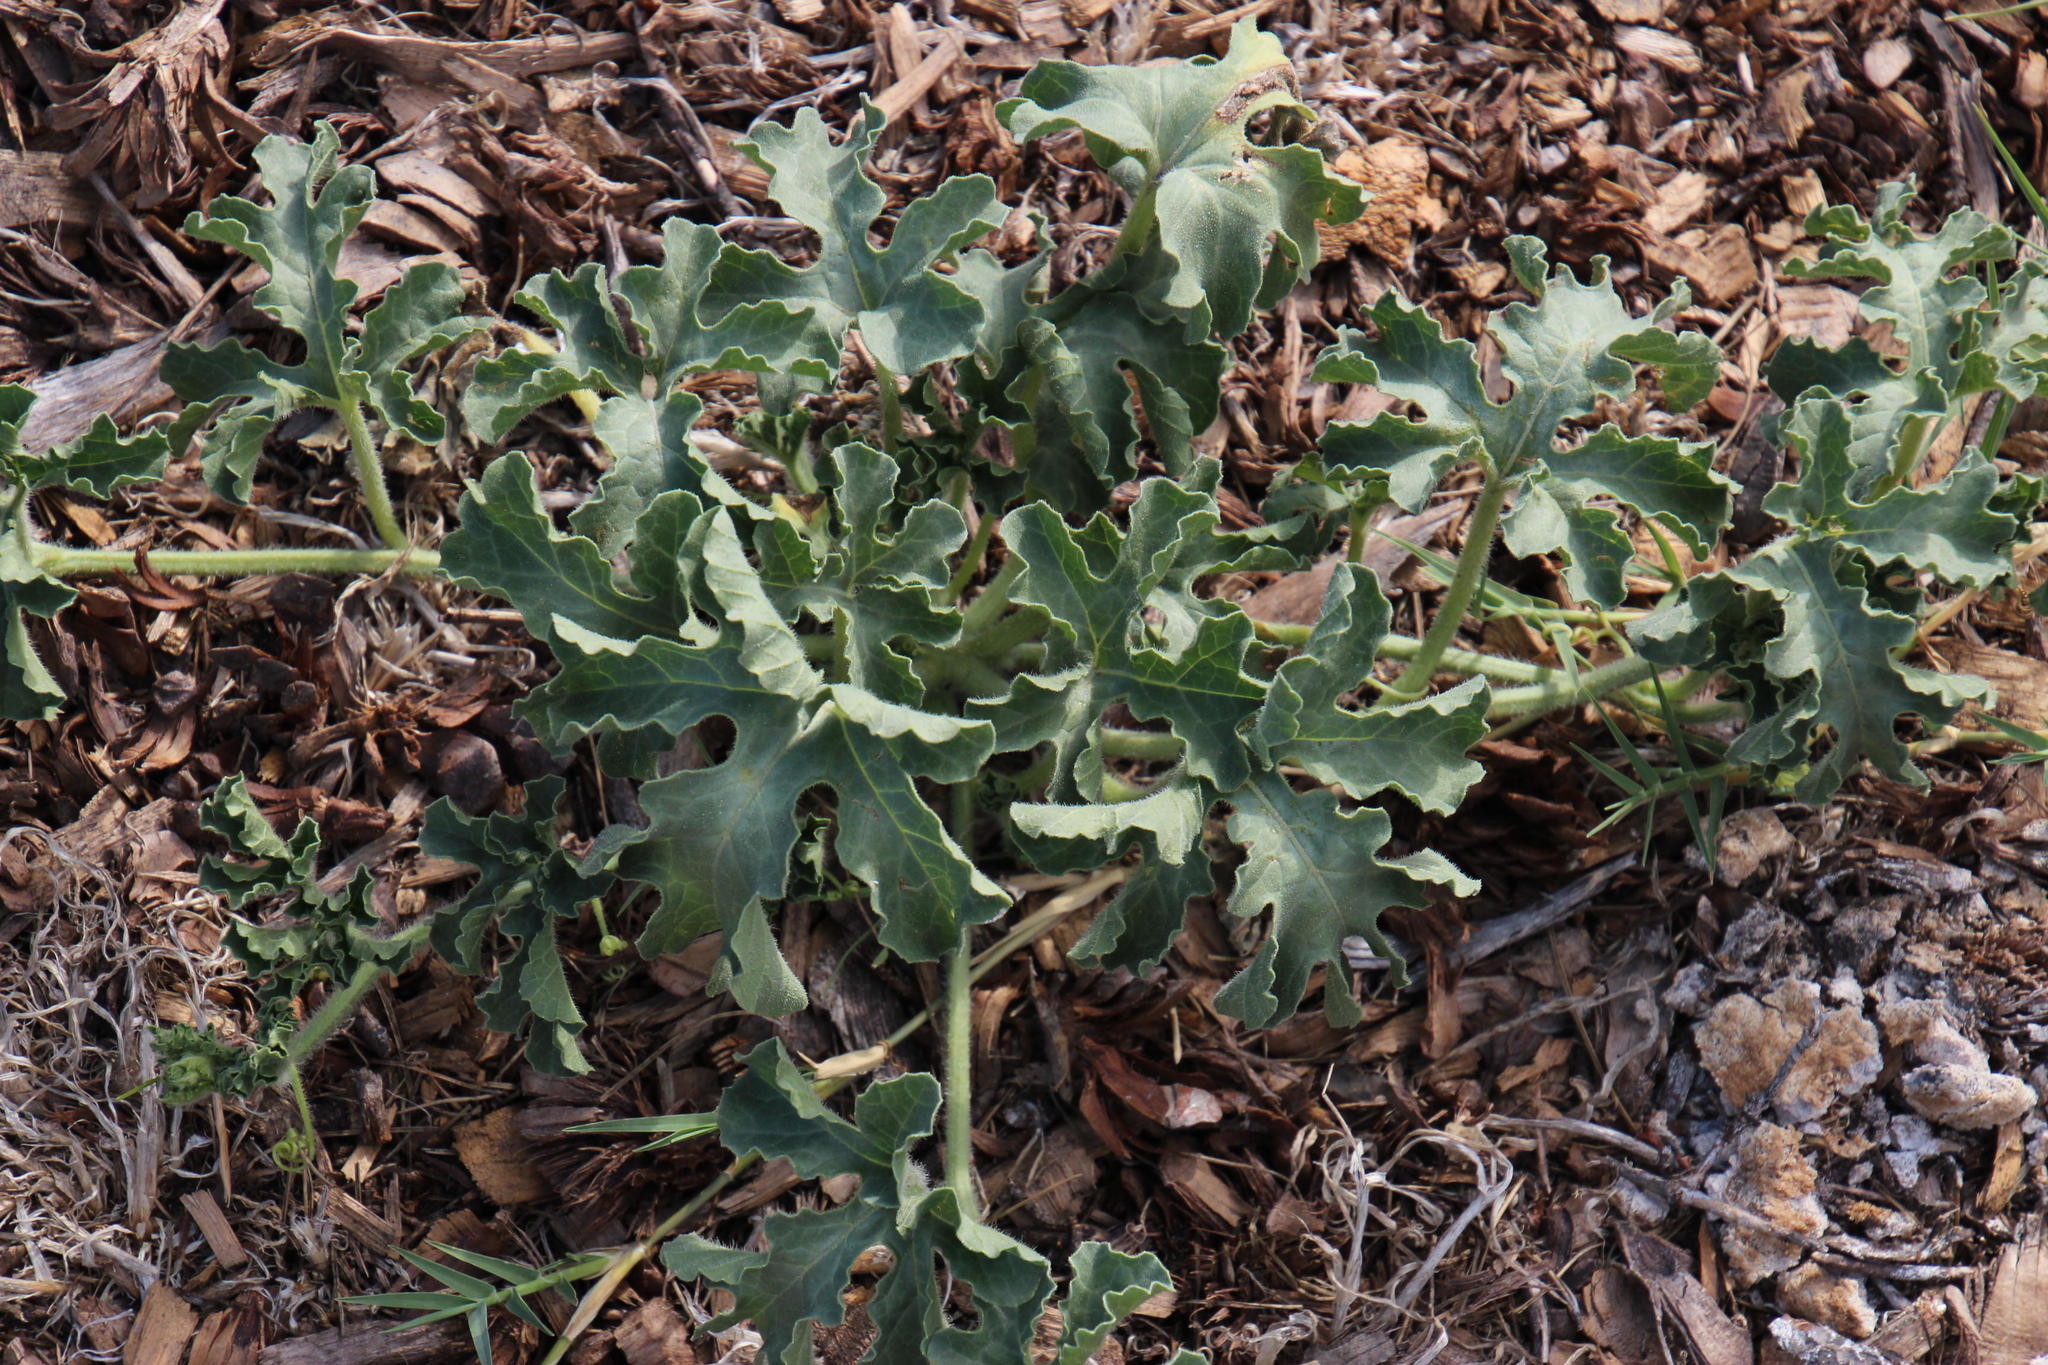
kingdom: Plantae
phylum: Tracheophyta
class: Magnoliopsida
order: Cucurbitales
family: Cucurbitaceae
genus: Citrullus
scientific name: Citrullus amarus
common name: Fodder-melon
